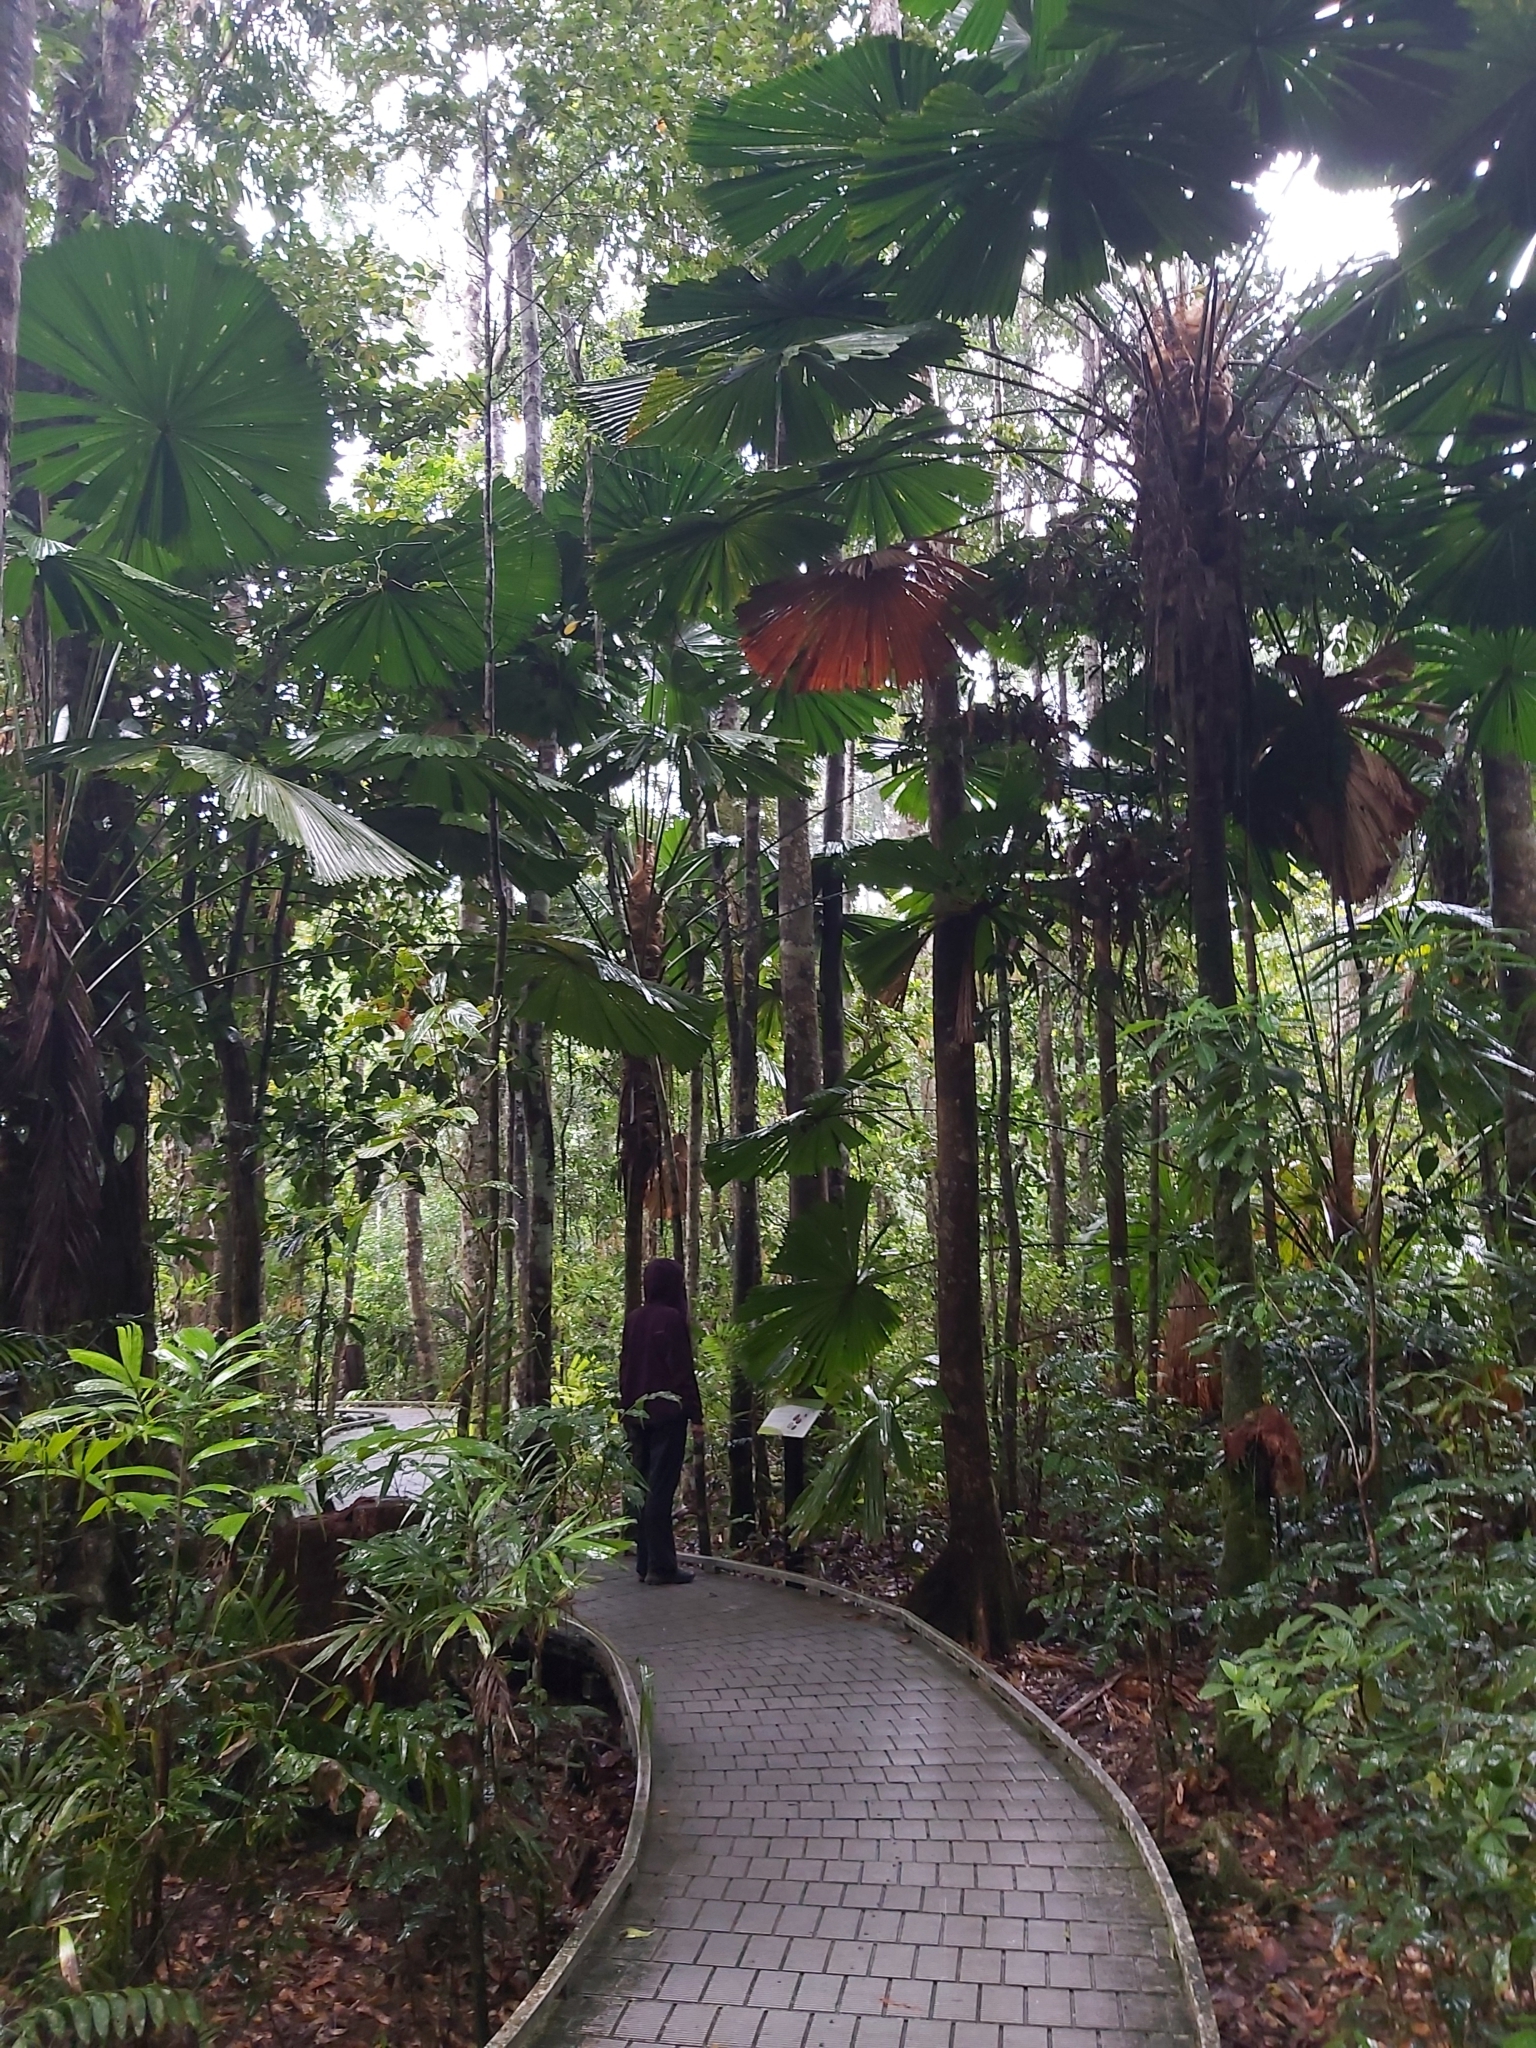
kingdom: Plantae
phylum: Tracheophyta
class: Liliopsida
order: Arecales
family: Arecaceae
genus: Licuala
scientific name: Licuala ramsayi
